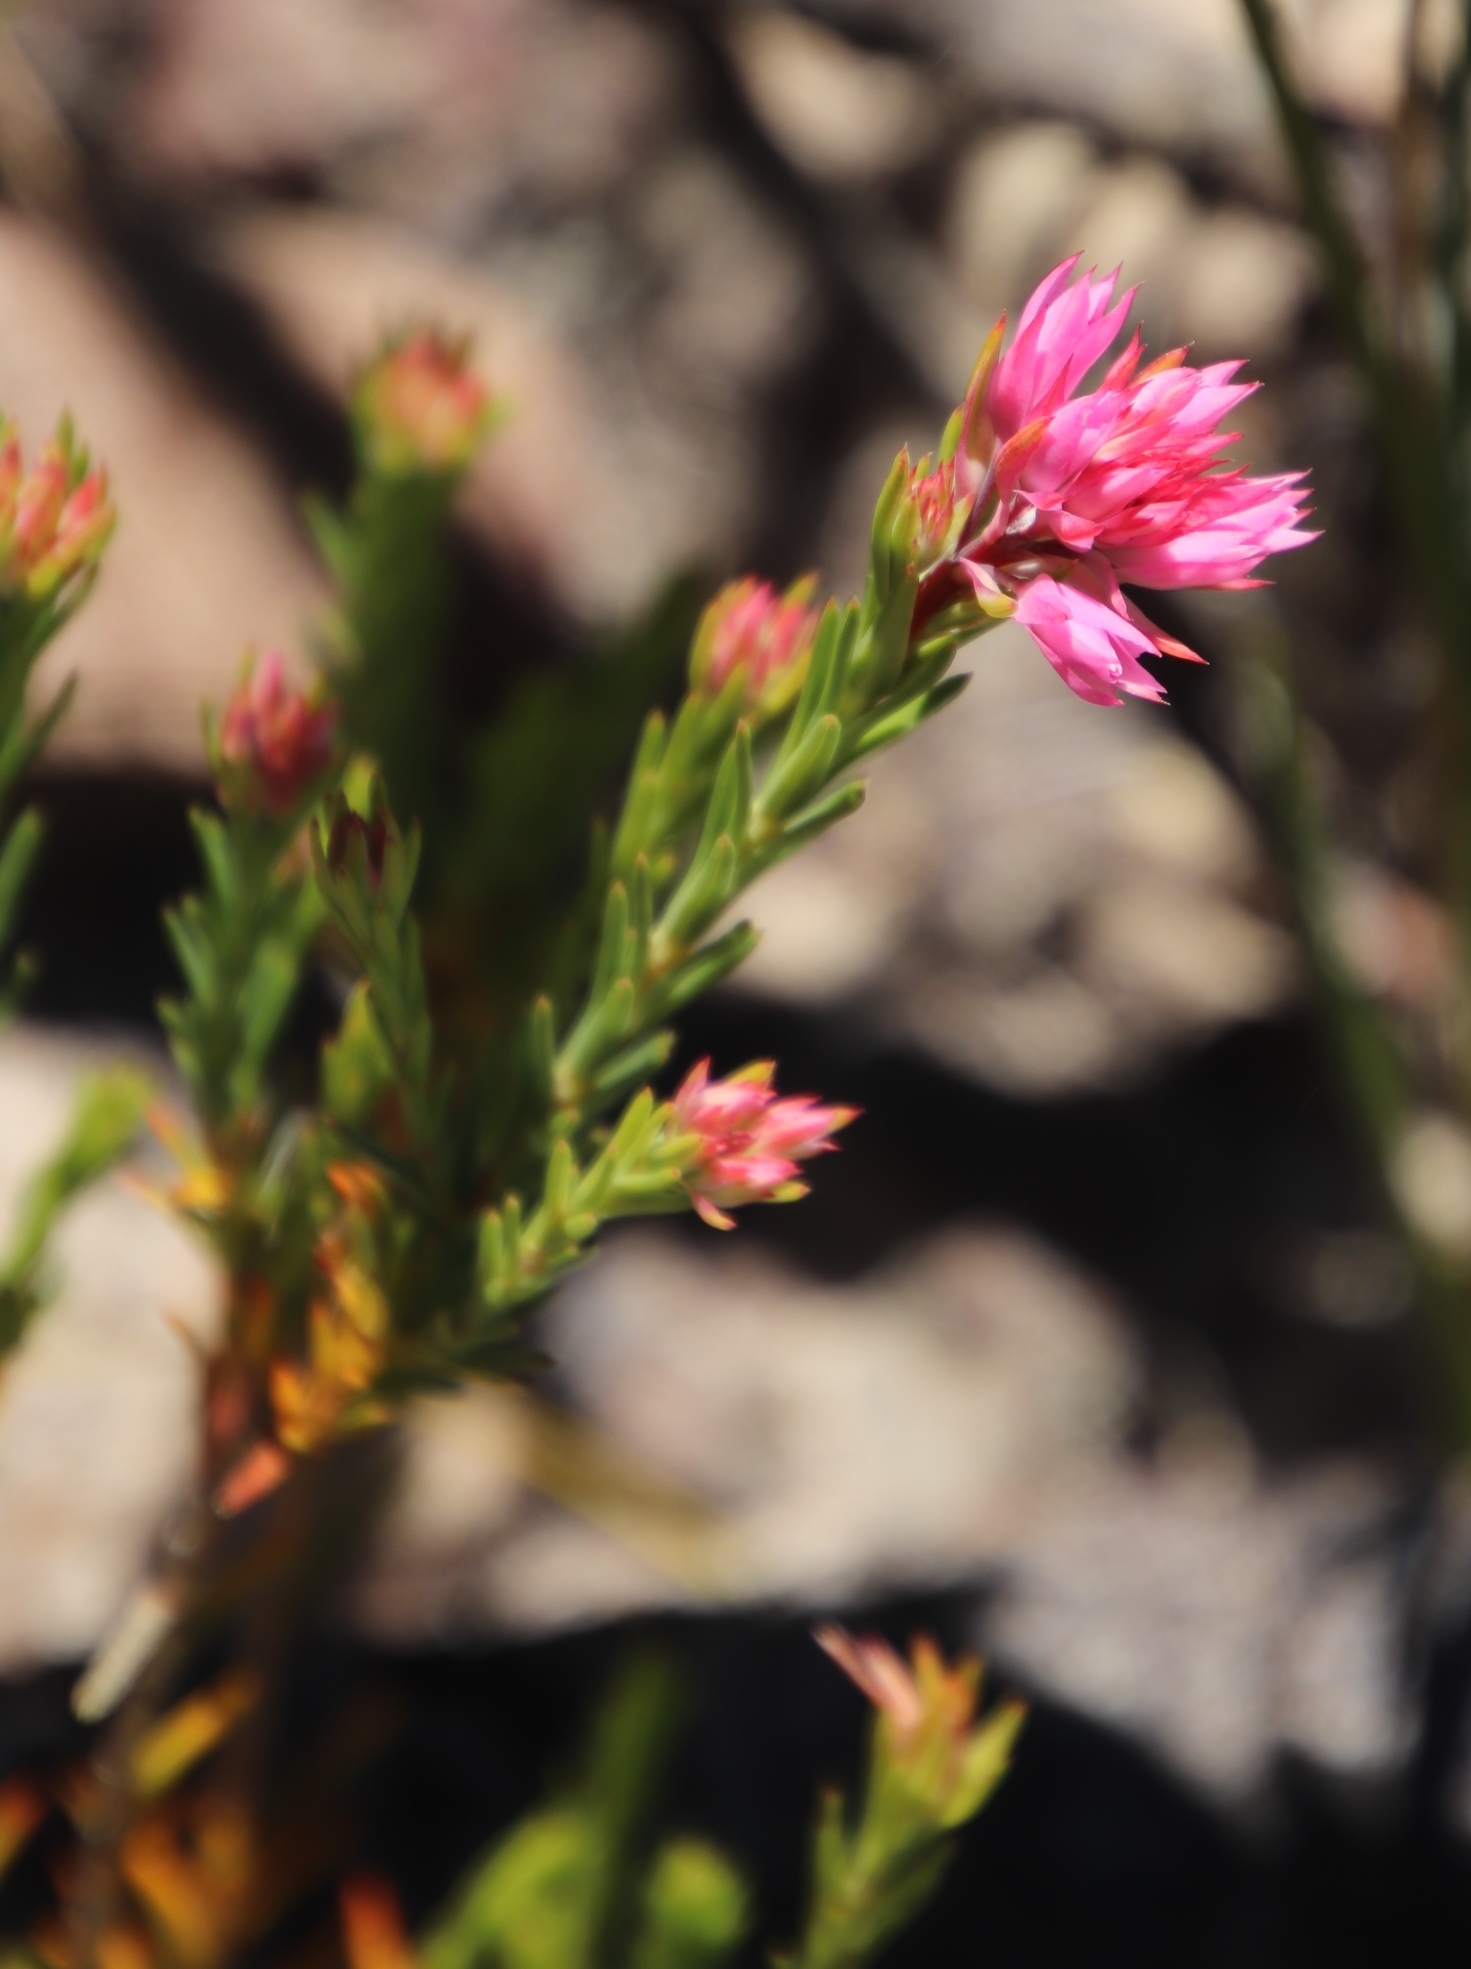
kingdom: Plantae
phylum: Tracheophyta
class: Magnoliopsida
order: Ericales
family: Ericaceae
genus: Erica
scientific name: Erica taxifolia
